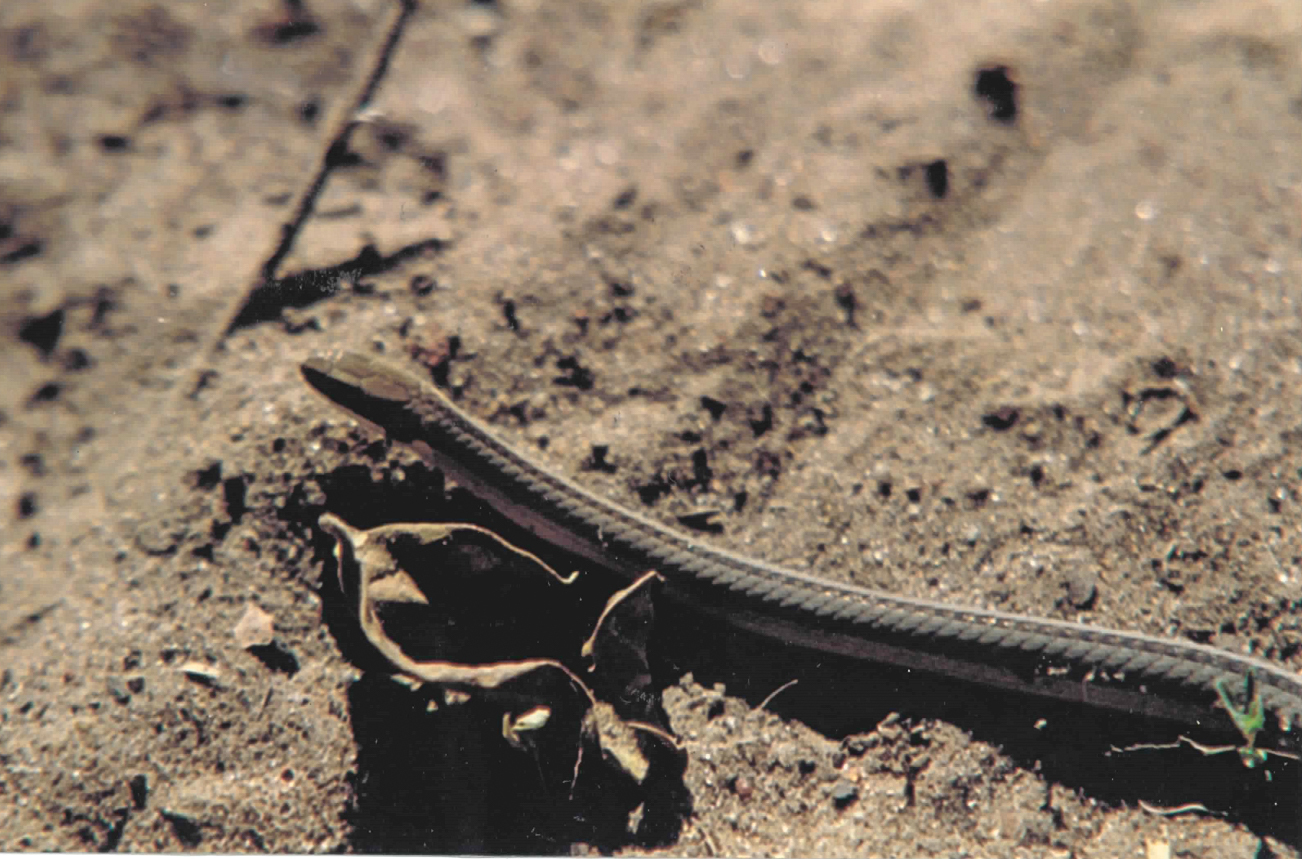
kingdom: Animalia
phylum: Chordata
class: Squamata
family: Colubridae
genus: Psomophis
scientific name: Psomophis genimaculatus
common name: Spirit diminutive snake
